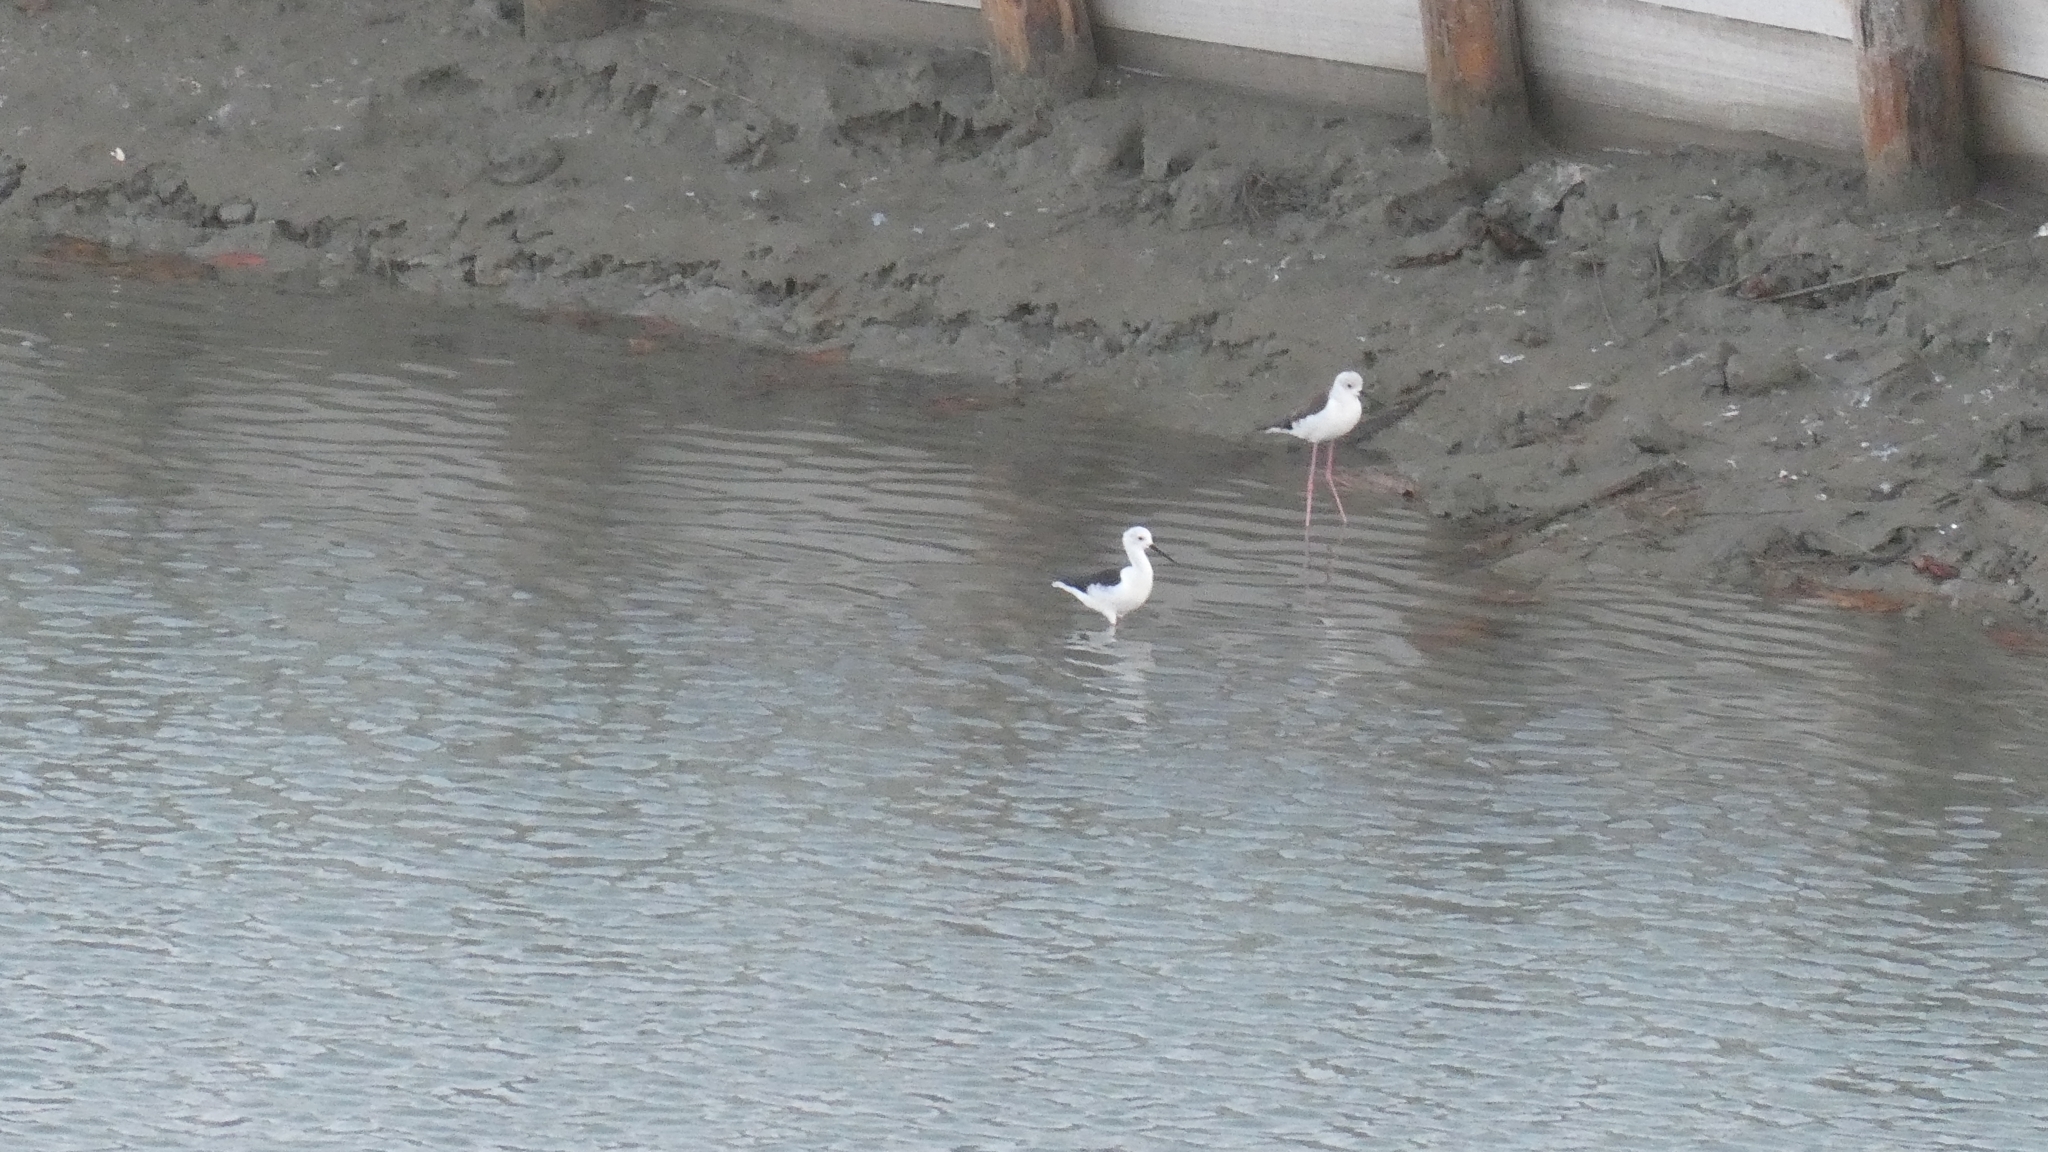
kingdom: Animalia
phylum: Chordata
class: Aves
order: Charadriiformes
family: Recurvirostridae
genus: Himantopus
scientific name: Himantopus himantopus
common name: Black-winged stilt
